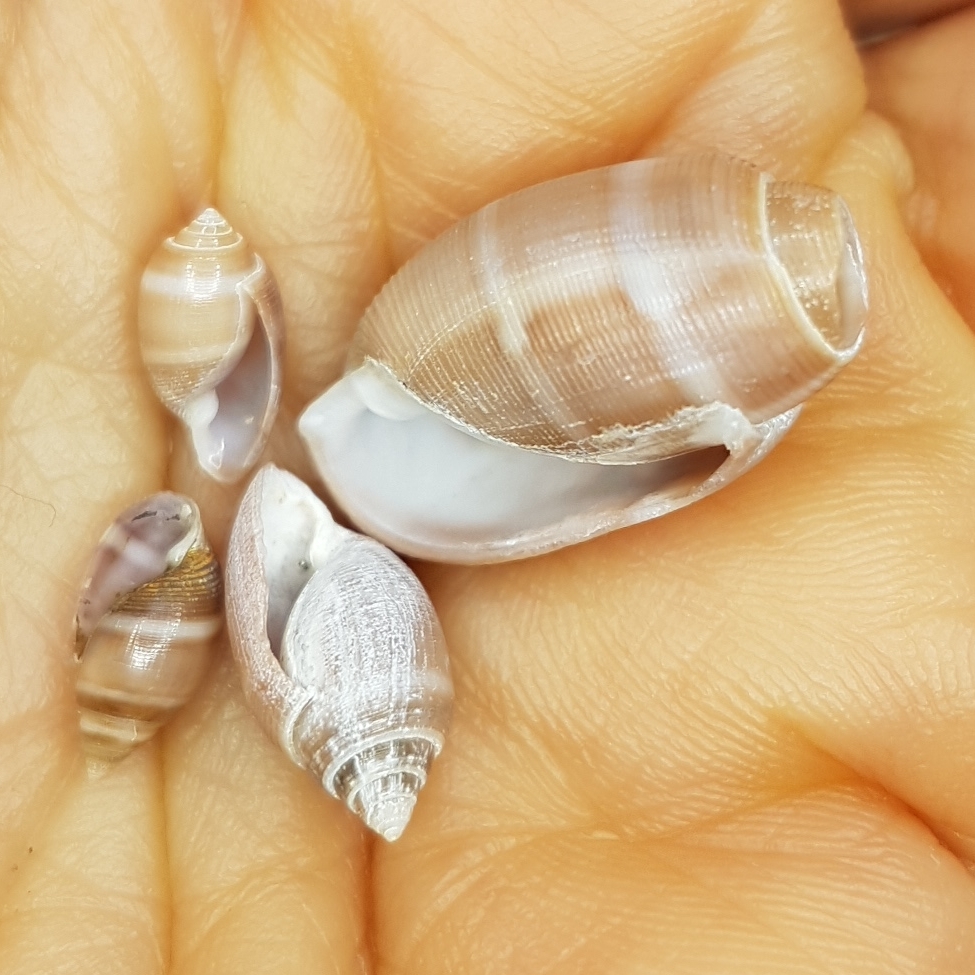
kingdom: Animalia
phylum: Mollusca
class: Gastropoda
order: Cephalaspidea
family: Acteonidae
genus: Acteon
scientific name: Acteon tornatilis
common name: European acteon
